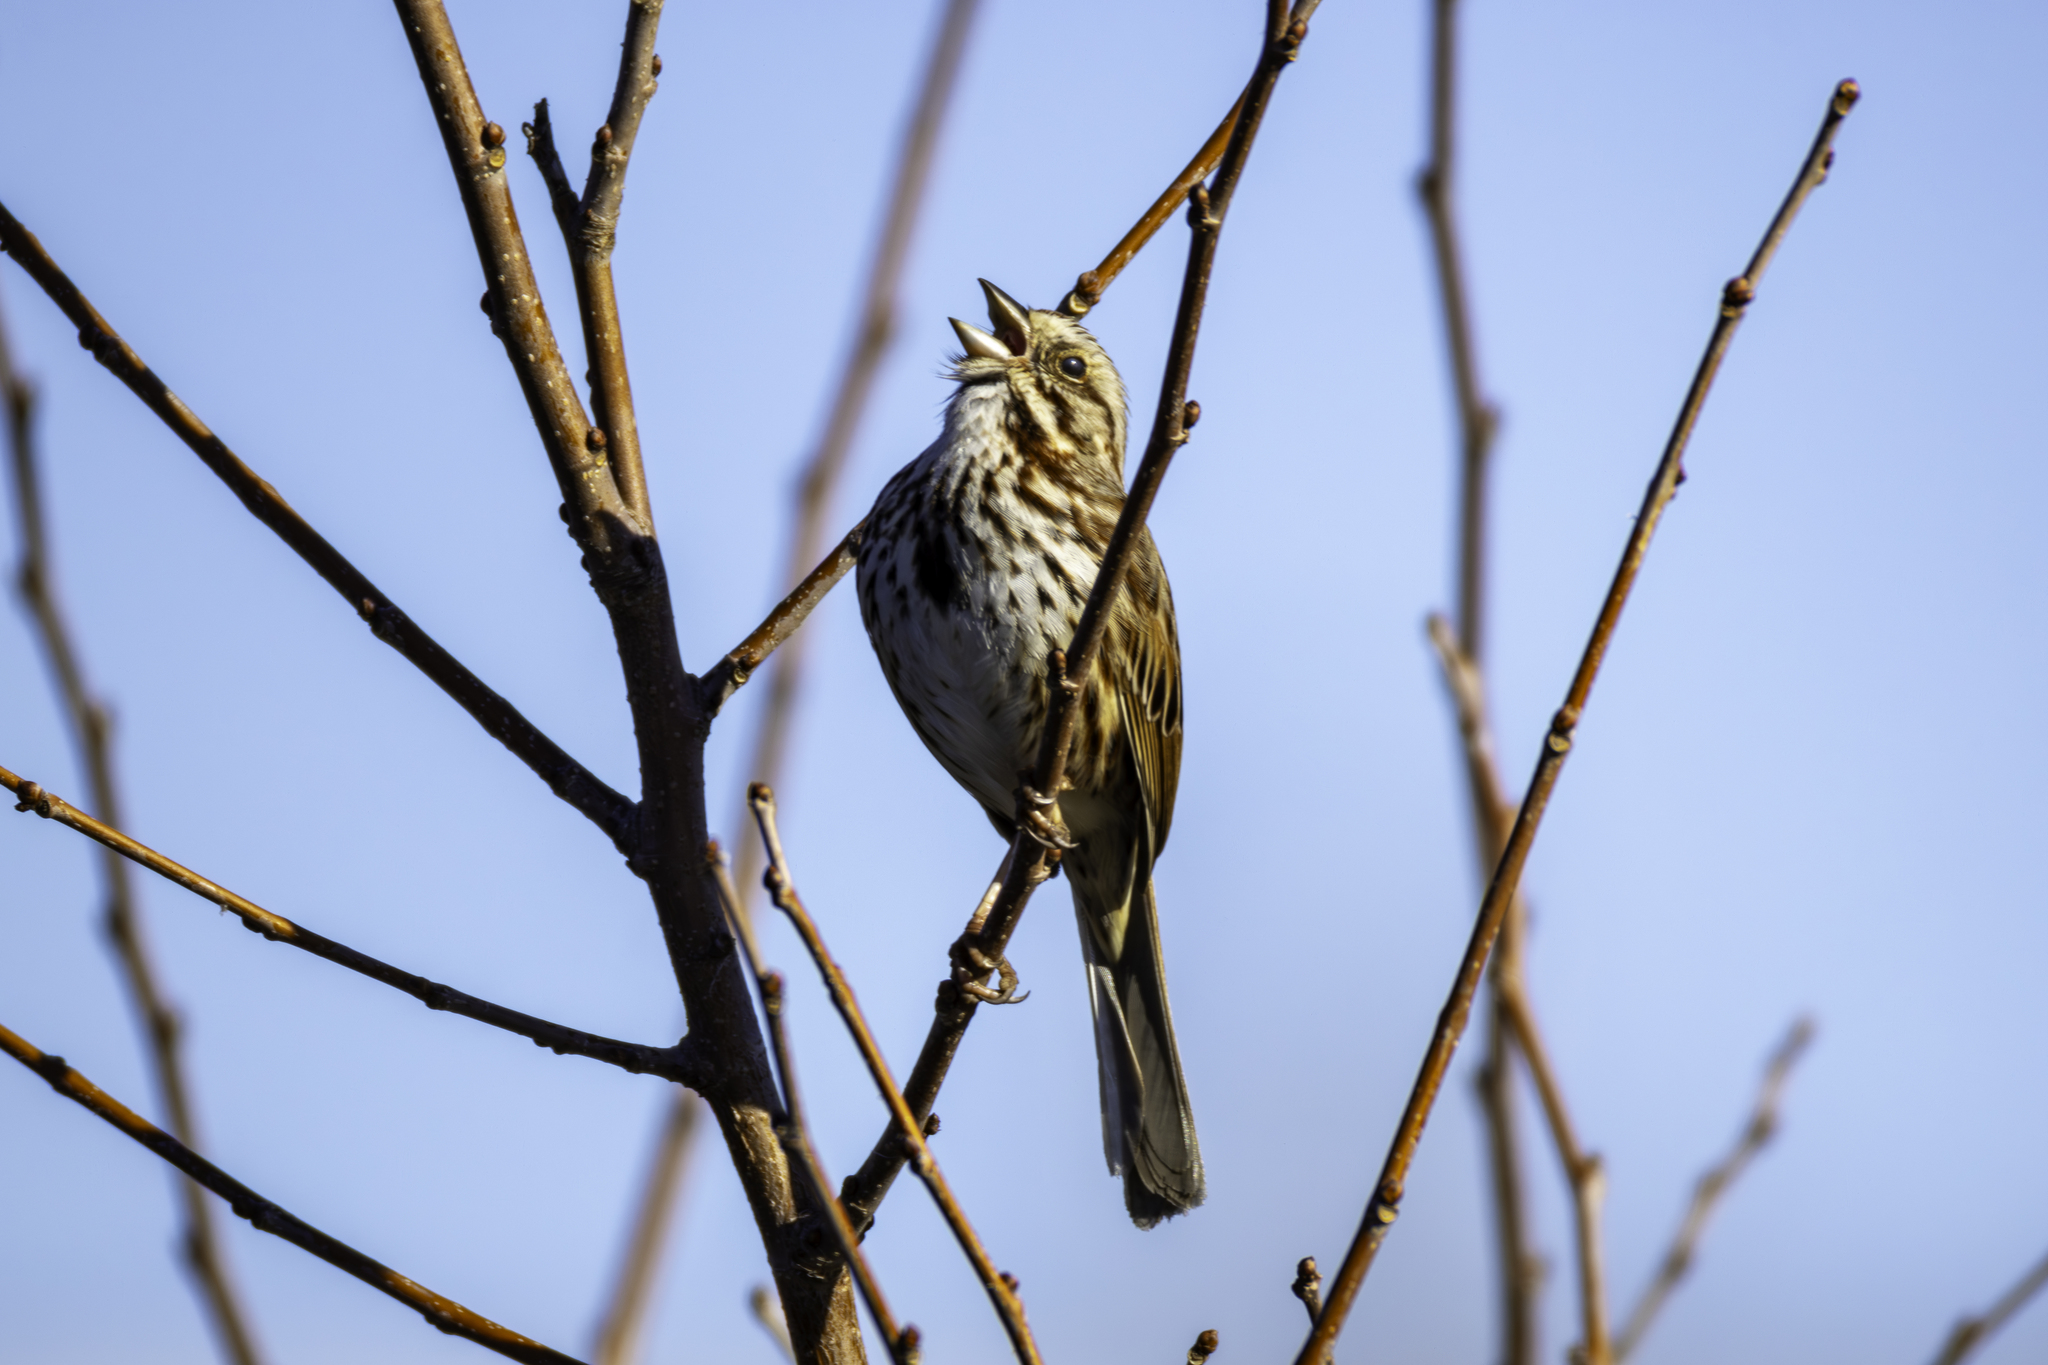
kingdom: Animalia
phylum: Chordata
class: Aves
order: Passeriformes
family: Passerellidae
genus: Melospiza
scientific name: Melospiza melodia
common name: Song sparrow
